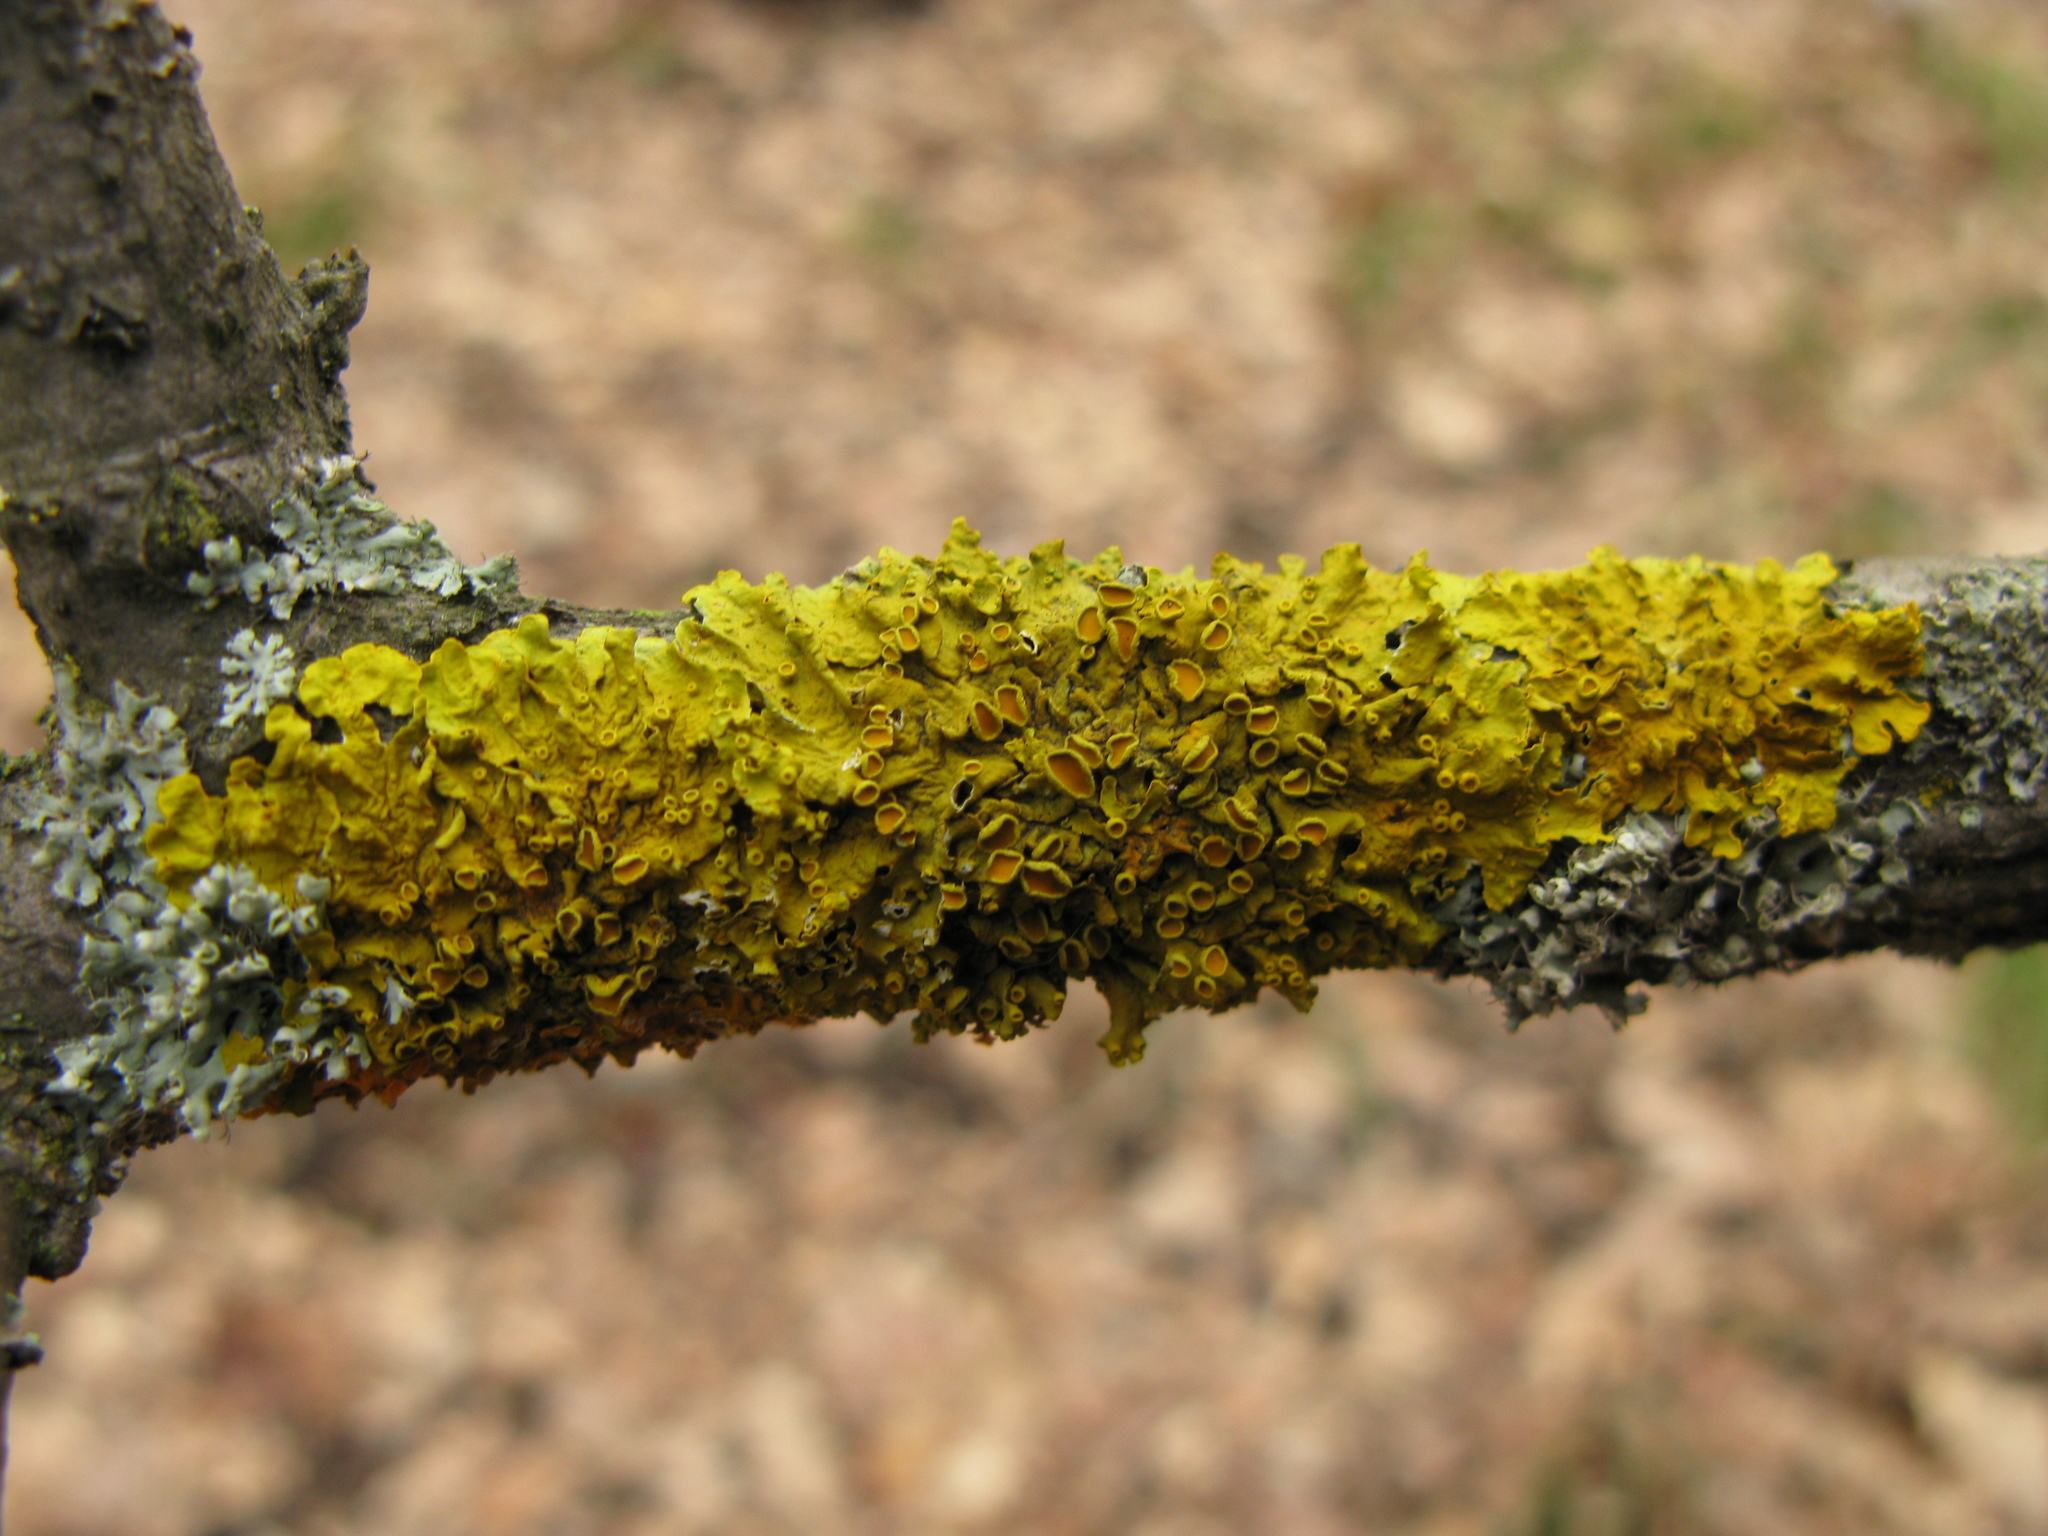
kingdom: Fungi
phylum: Ascomycota
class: Lecanoromycetes
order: Teloschistales
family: Teloschistaceae
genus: Xanthoria
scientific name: Xanthoria parietina
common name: Common orange lichen
